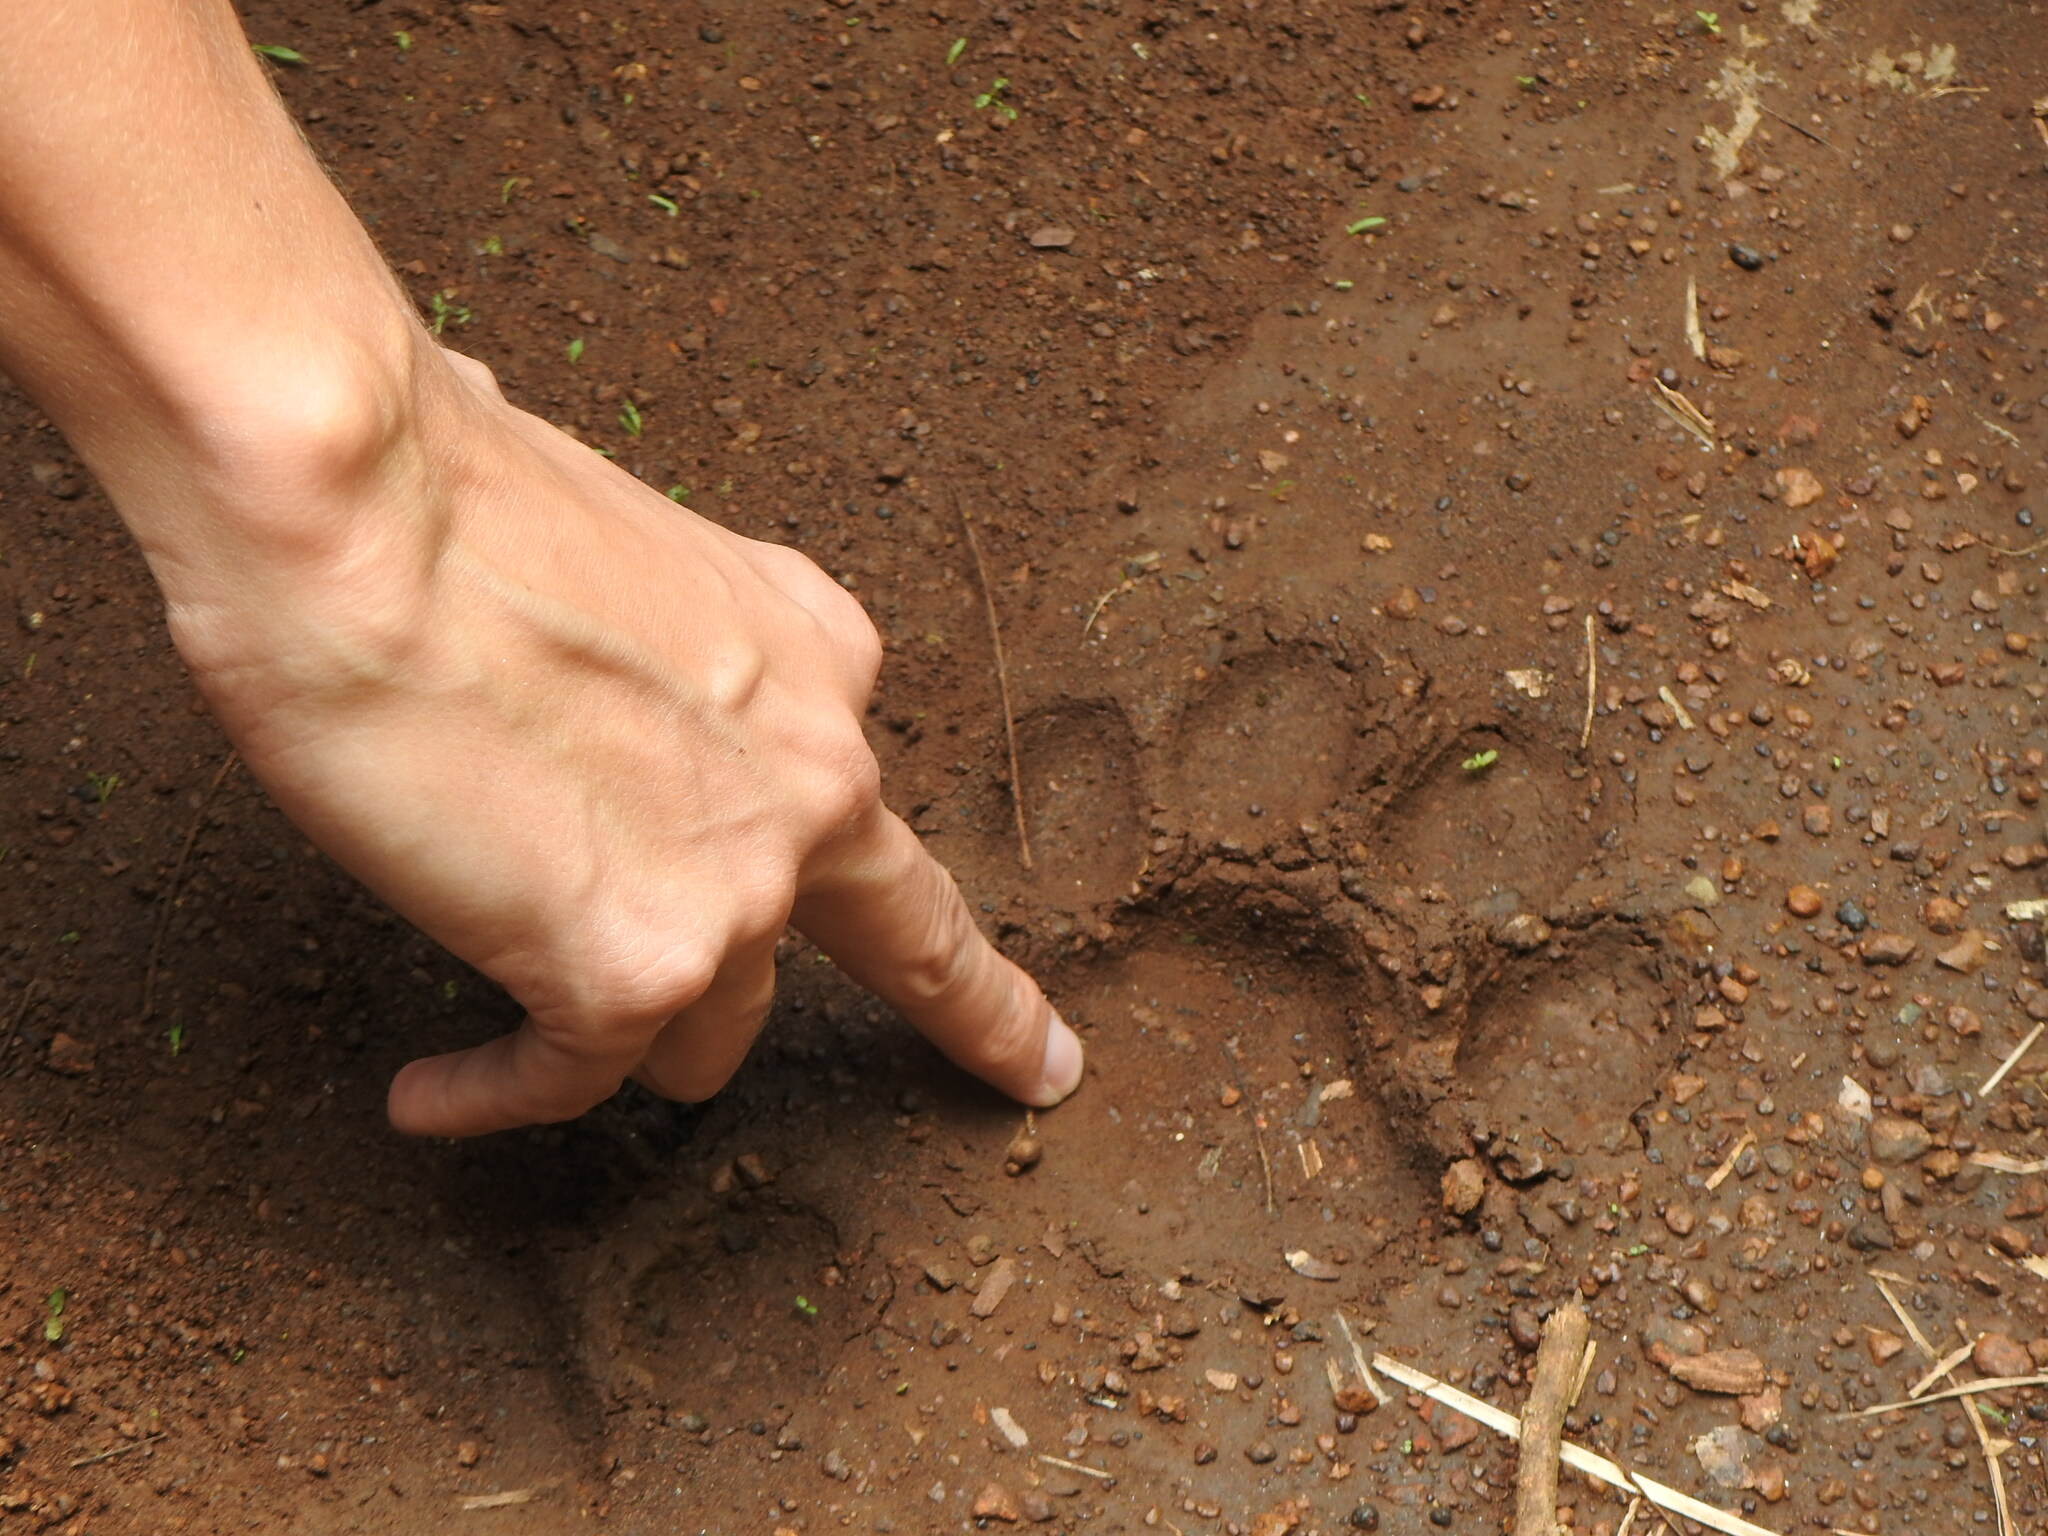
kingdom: Animalia
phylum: Chordata
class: Mammalia
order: Carnivora
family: Felidae
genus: Panthera
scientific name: Panthera onca
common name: Jaguar
